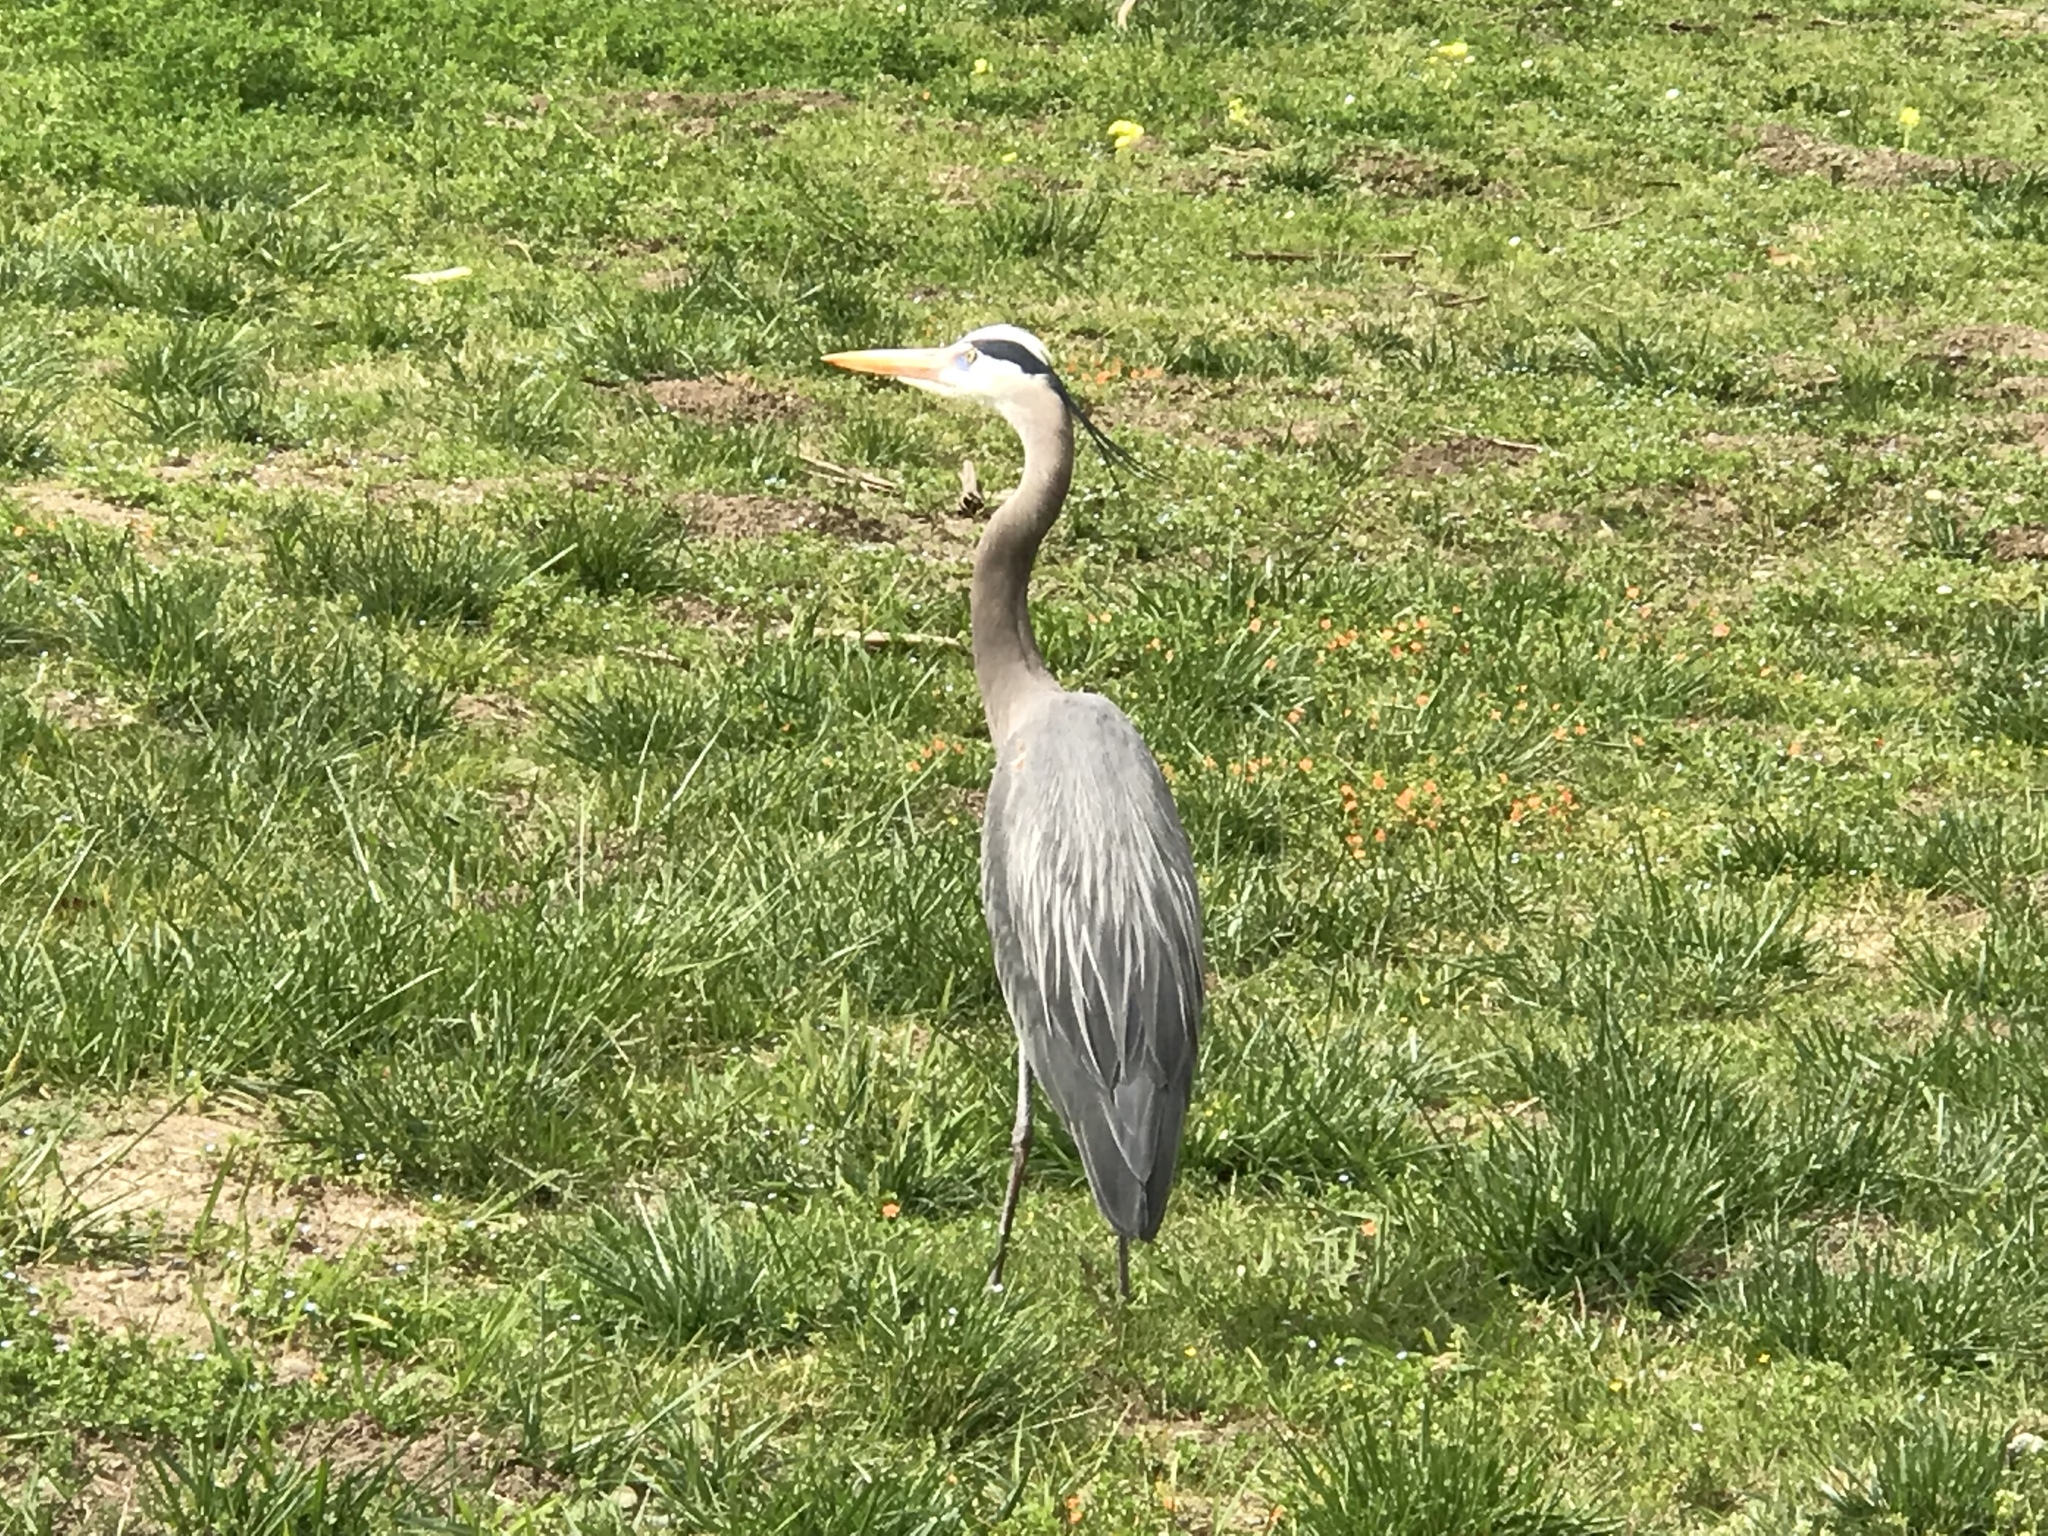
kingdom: Animalia
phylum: Chordata
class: Aves
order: Pelecaniformes
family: Ardeidae
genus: Ardea
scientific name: Ardea herodias
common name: Great blue heron
